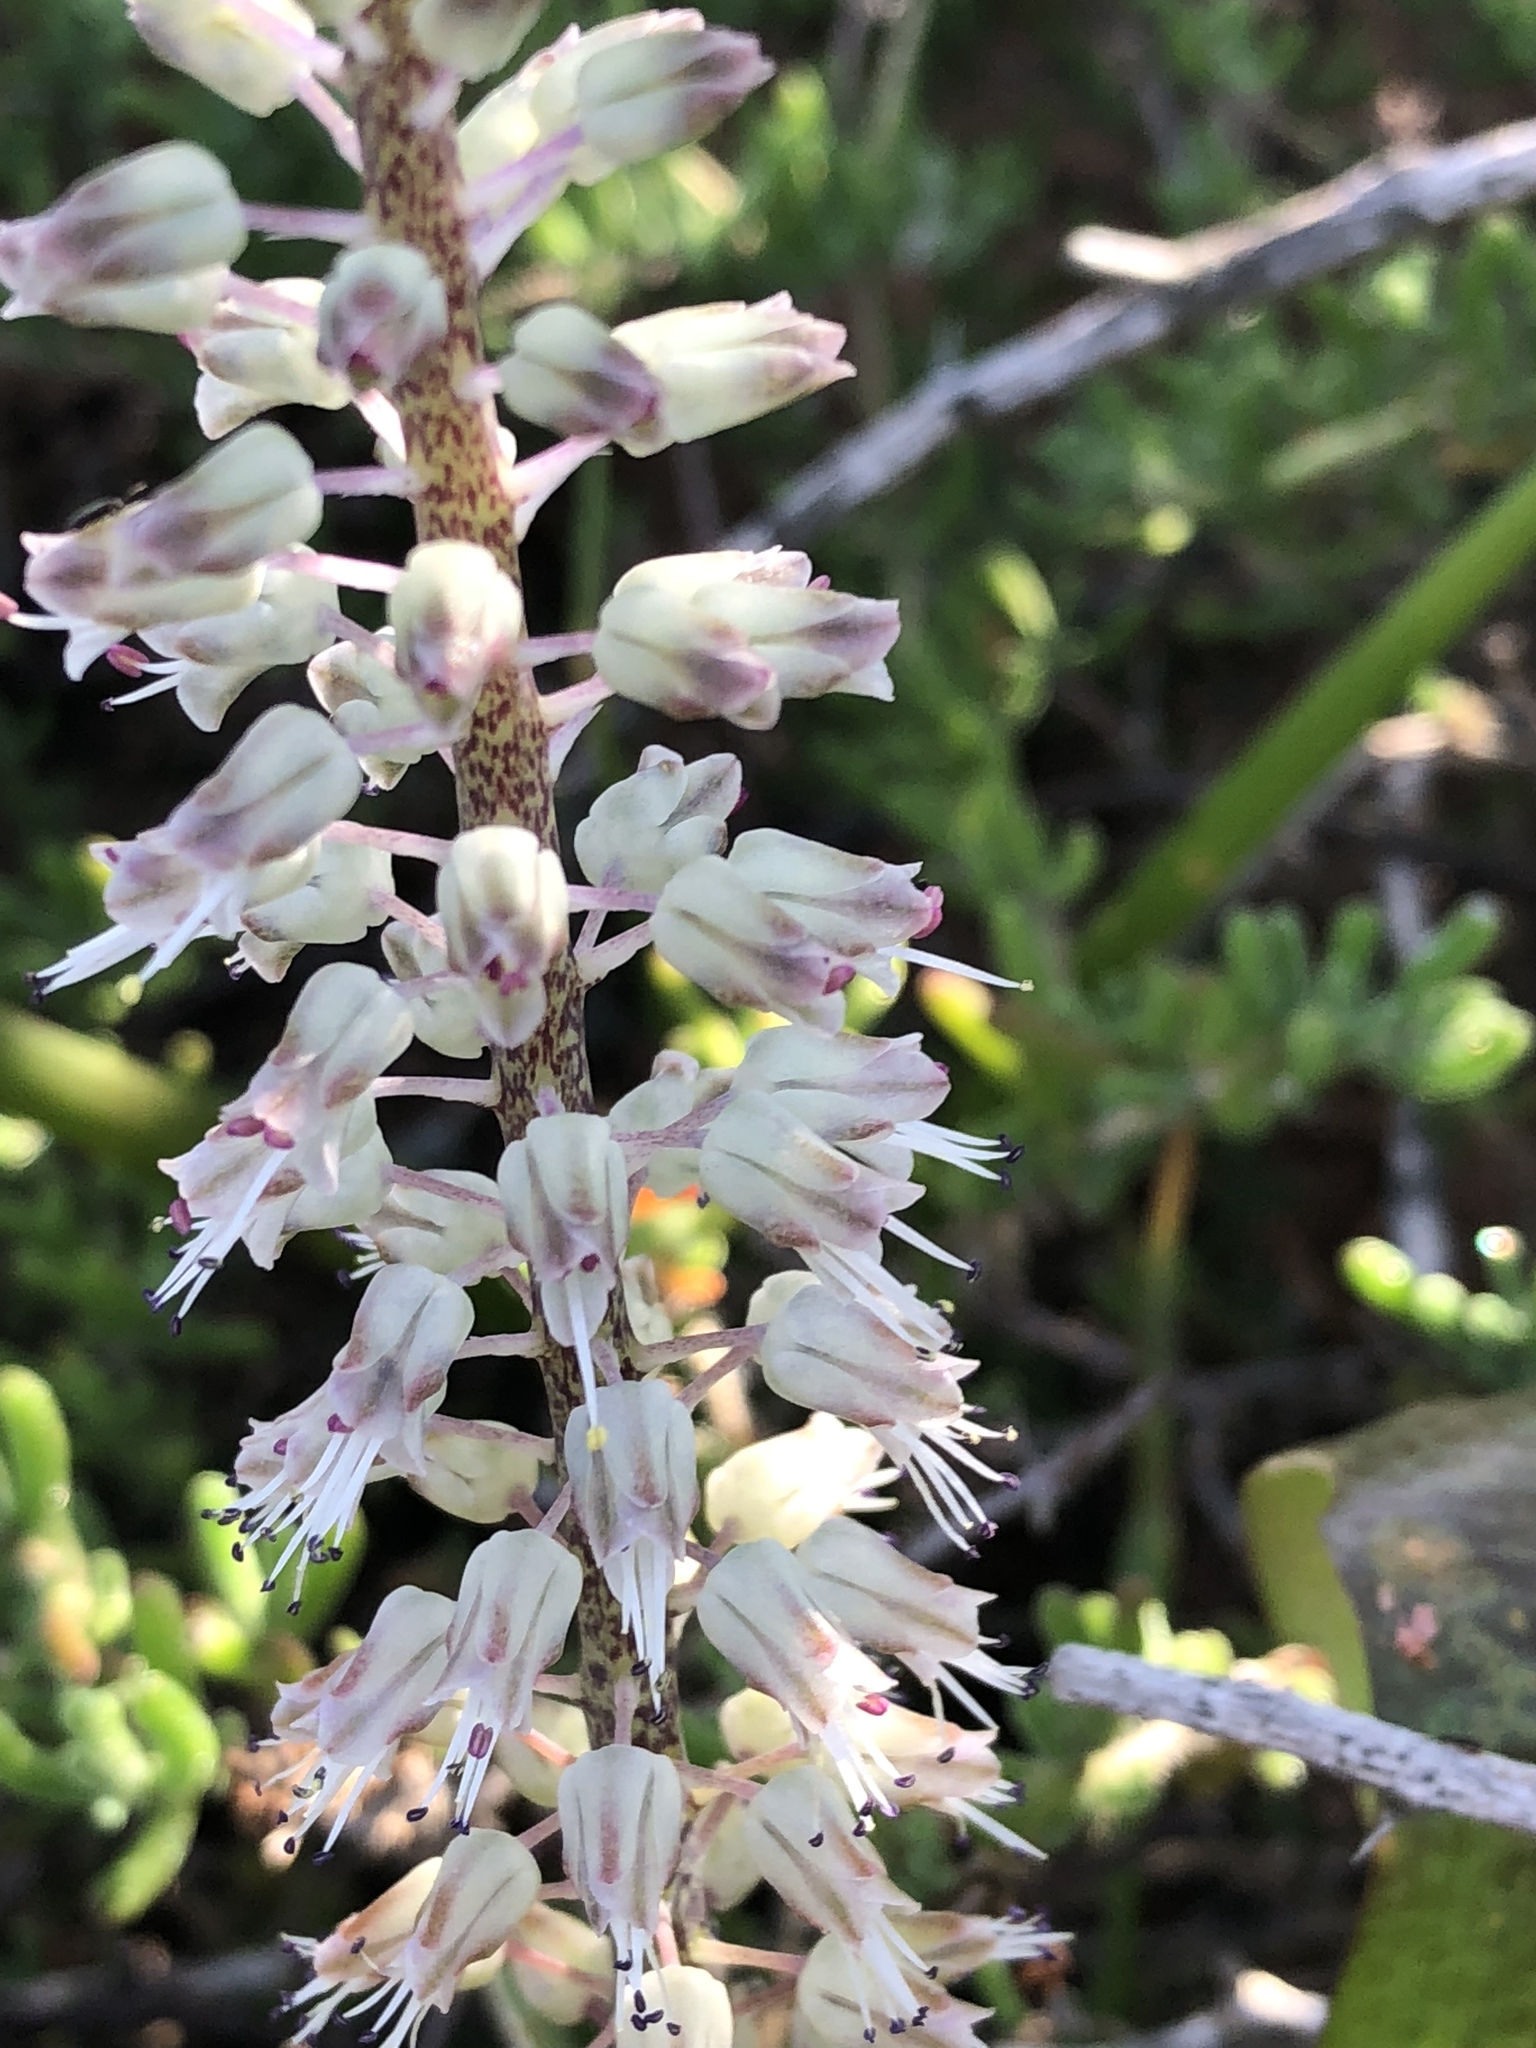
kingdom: Plantae
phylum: Tracheophyta
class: Liliopsida
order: Asparagales
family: Asparagaceae
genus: Lachenalia
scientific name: Lachenalia haarlemensis
